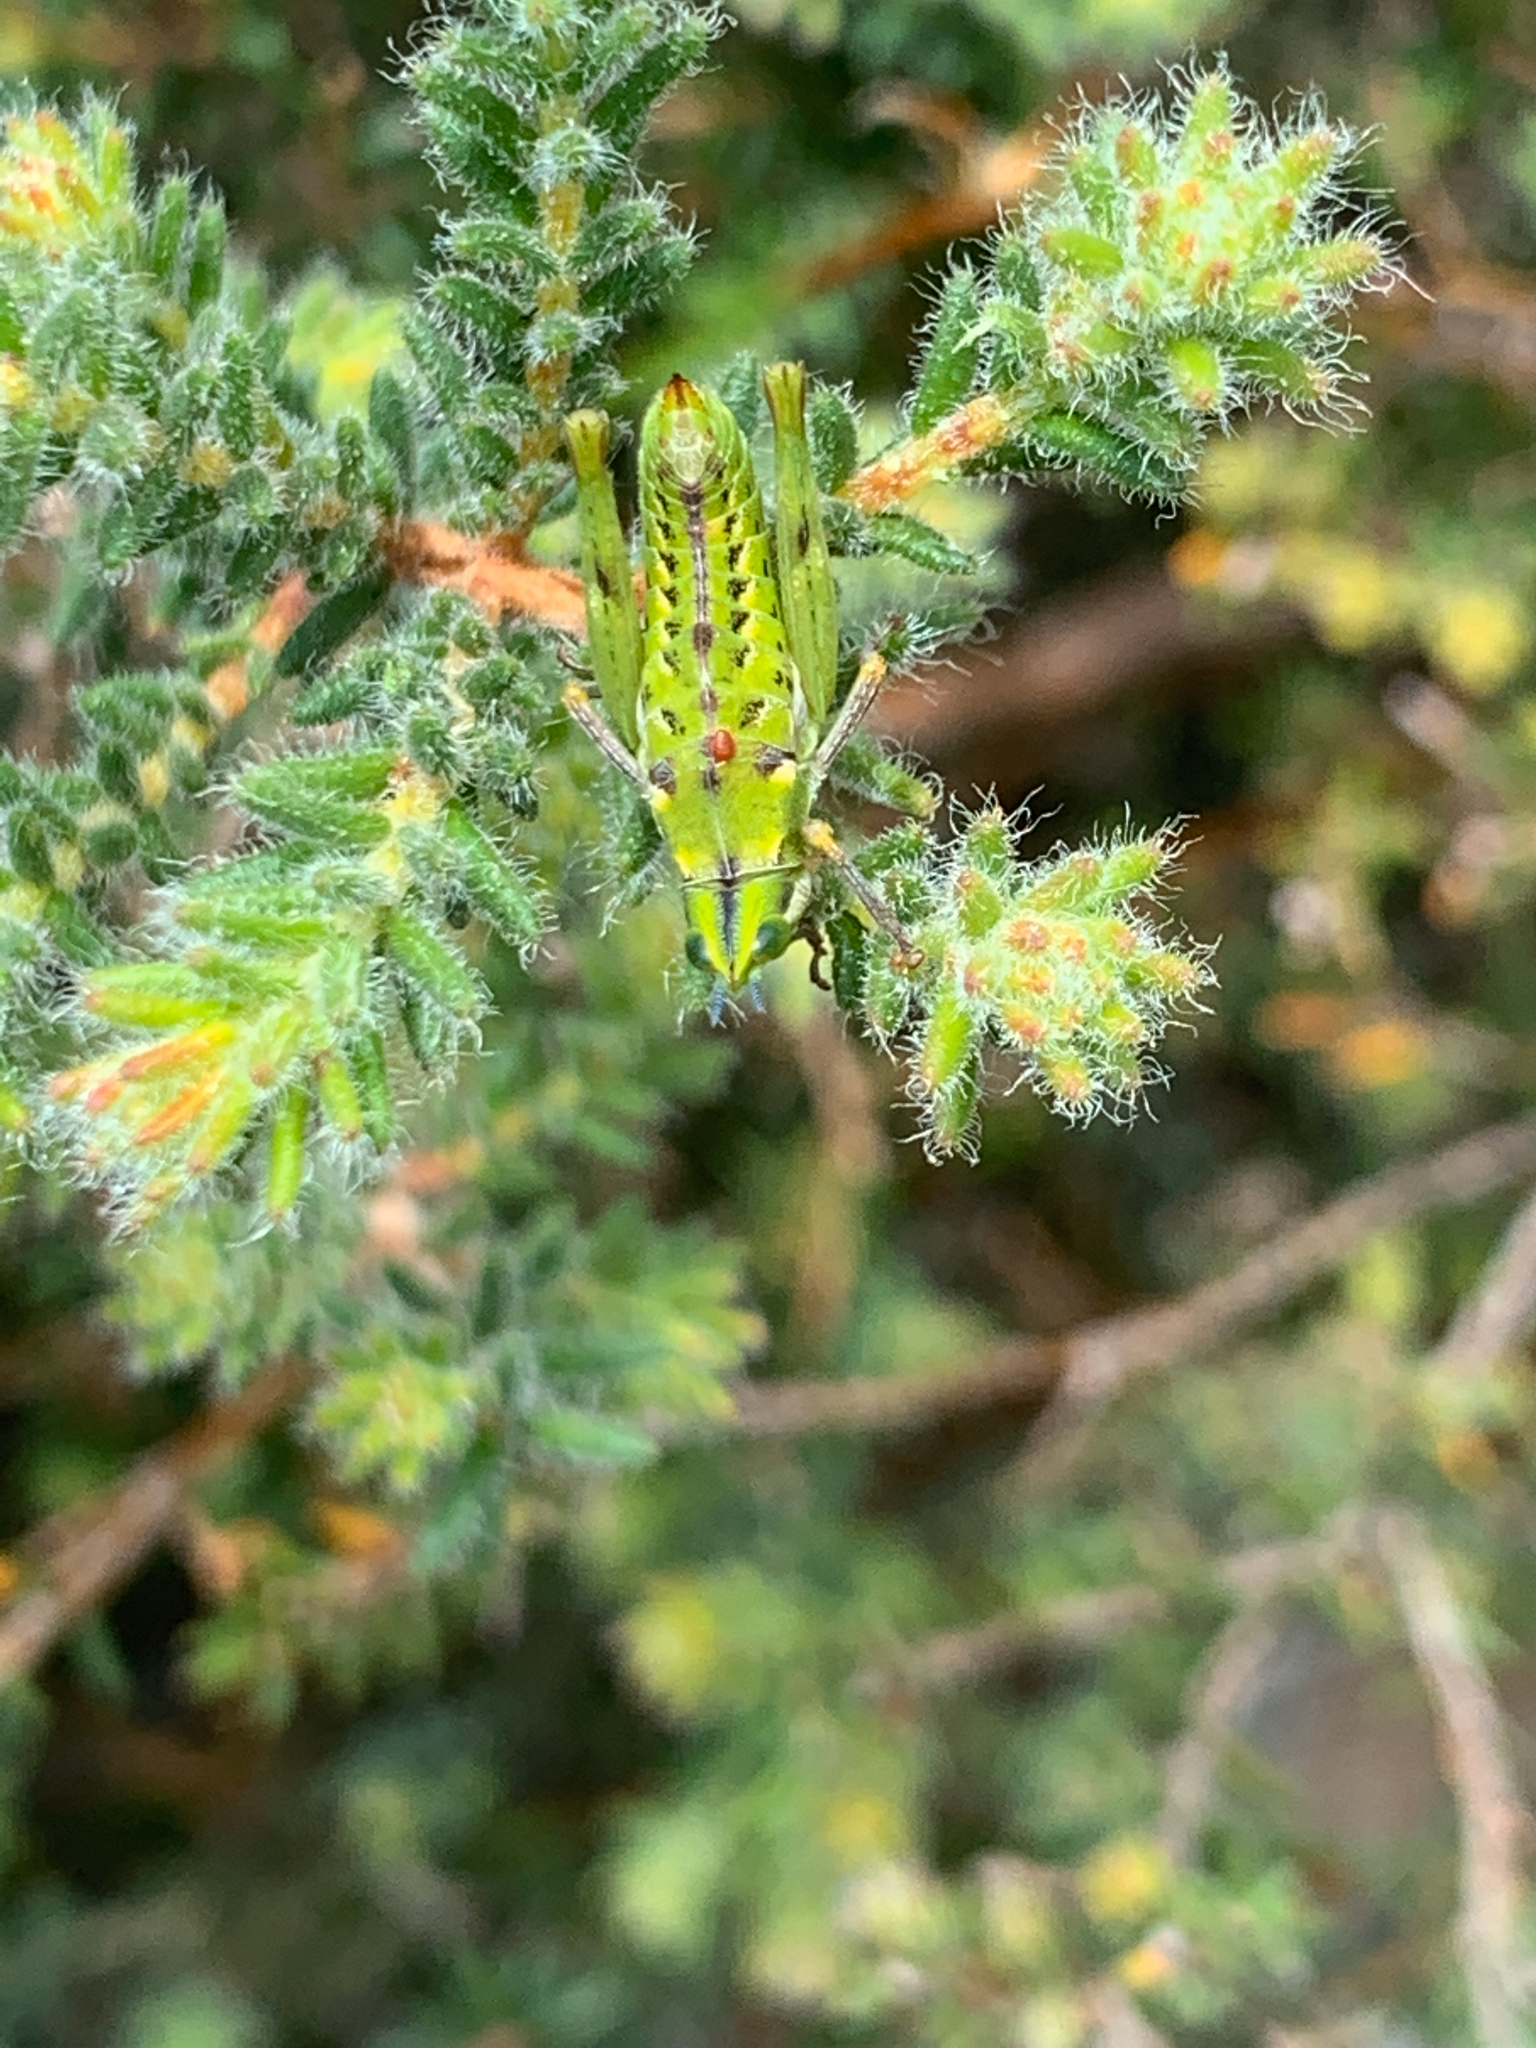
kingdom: Animalia
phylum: Arthropoda
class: Insecta
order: Orthoptera
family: Thericleidae
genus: Thericlesiella
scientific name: Thericlesiella meridionalis
